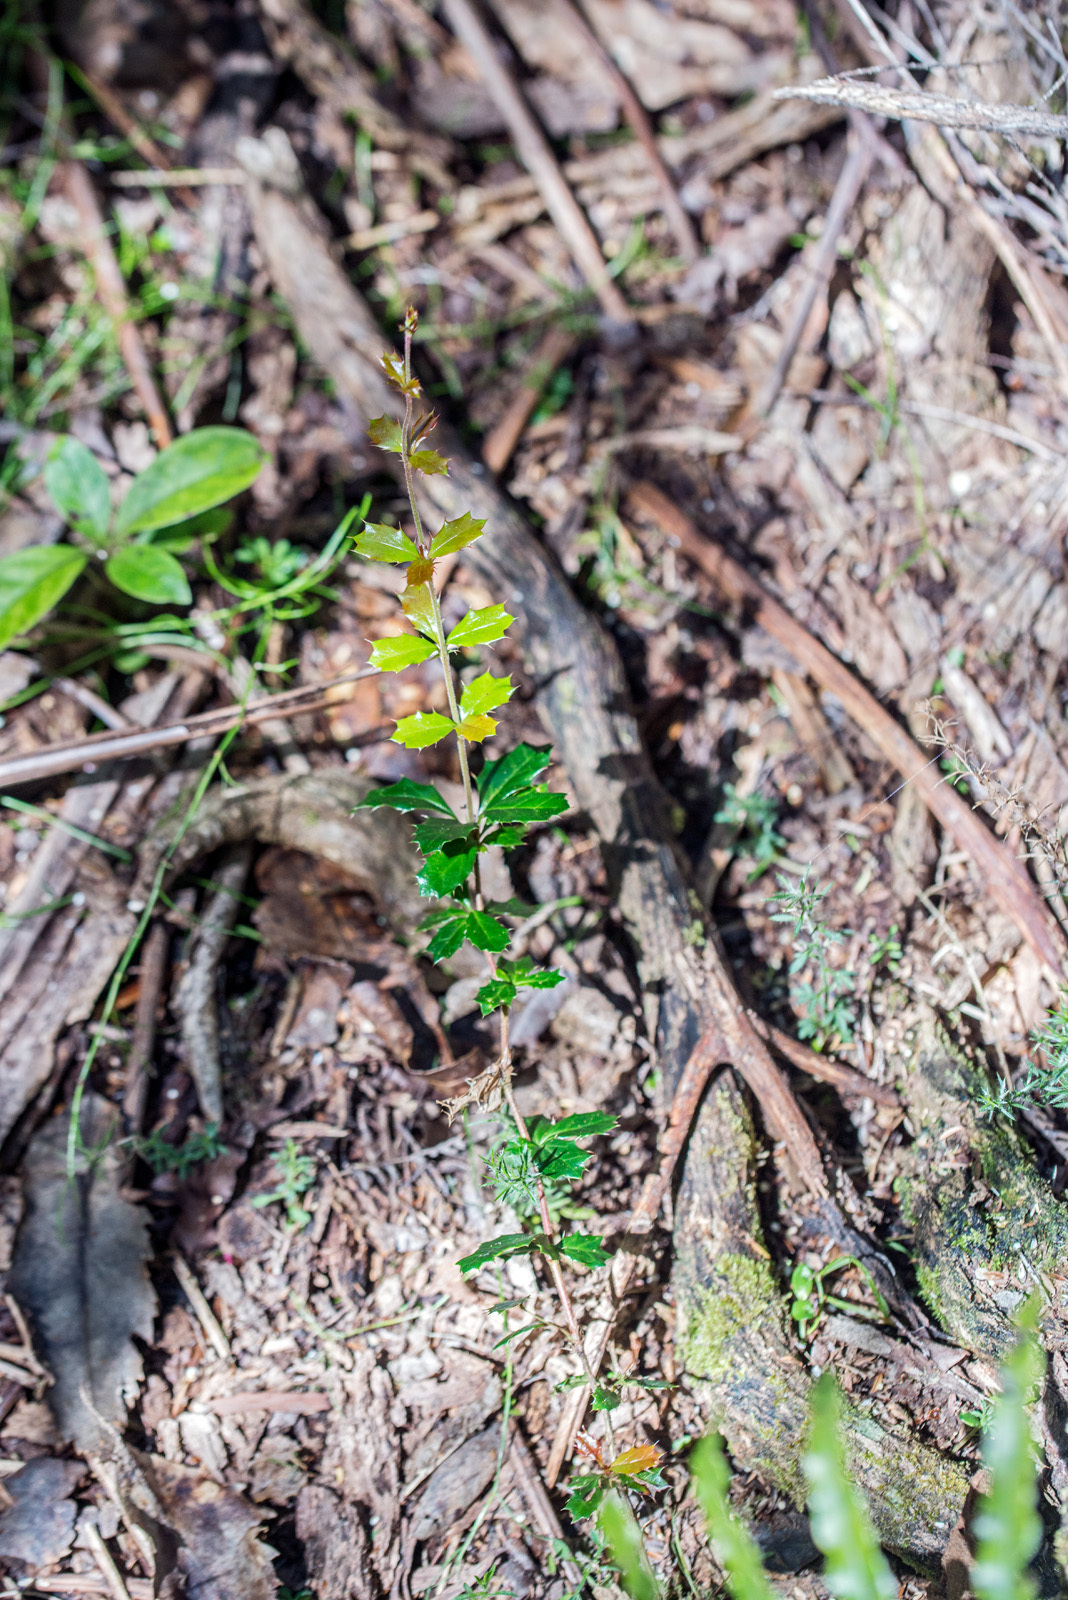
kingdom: Plantae
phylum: Tracheophyta
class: Magnoliopsida
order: Ranunculales
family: Berberidaceae
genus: Berberis
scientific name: Berberis darwinii
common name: Darwin's barberry
